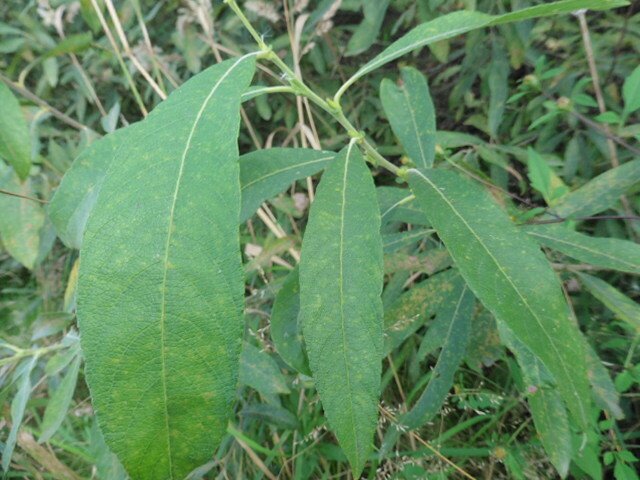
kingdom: Plantae
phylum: Tracheophyta
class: Magnoliopsida
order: Malpighiales
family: Salicaceae
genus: Salix
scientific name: Salix cinerea
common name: Common sallow
